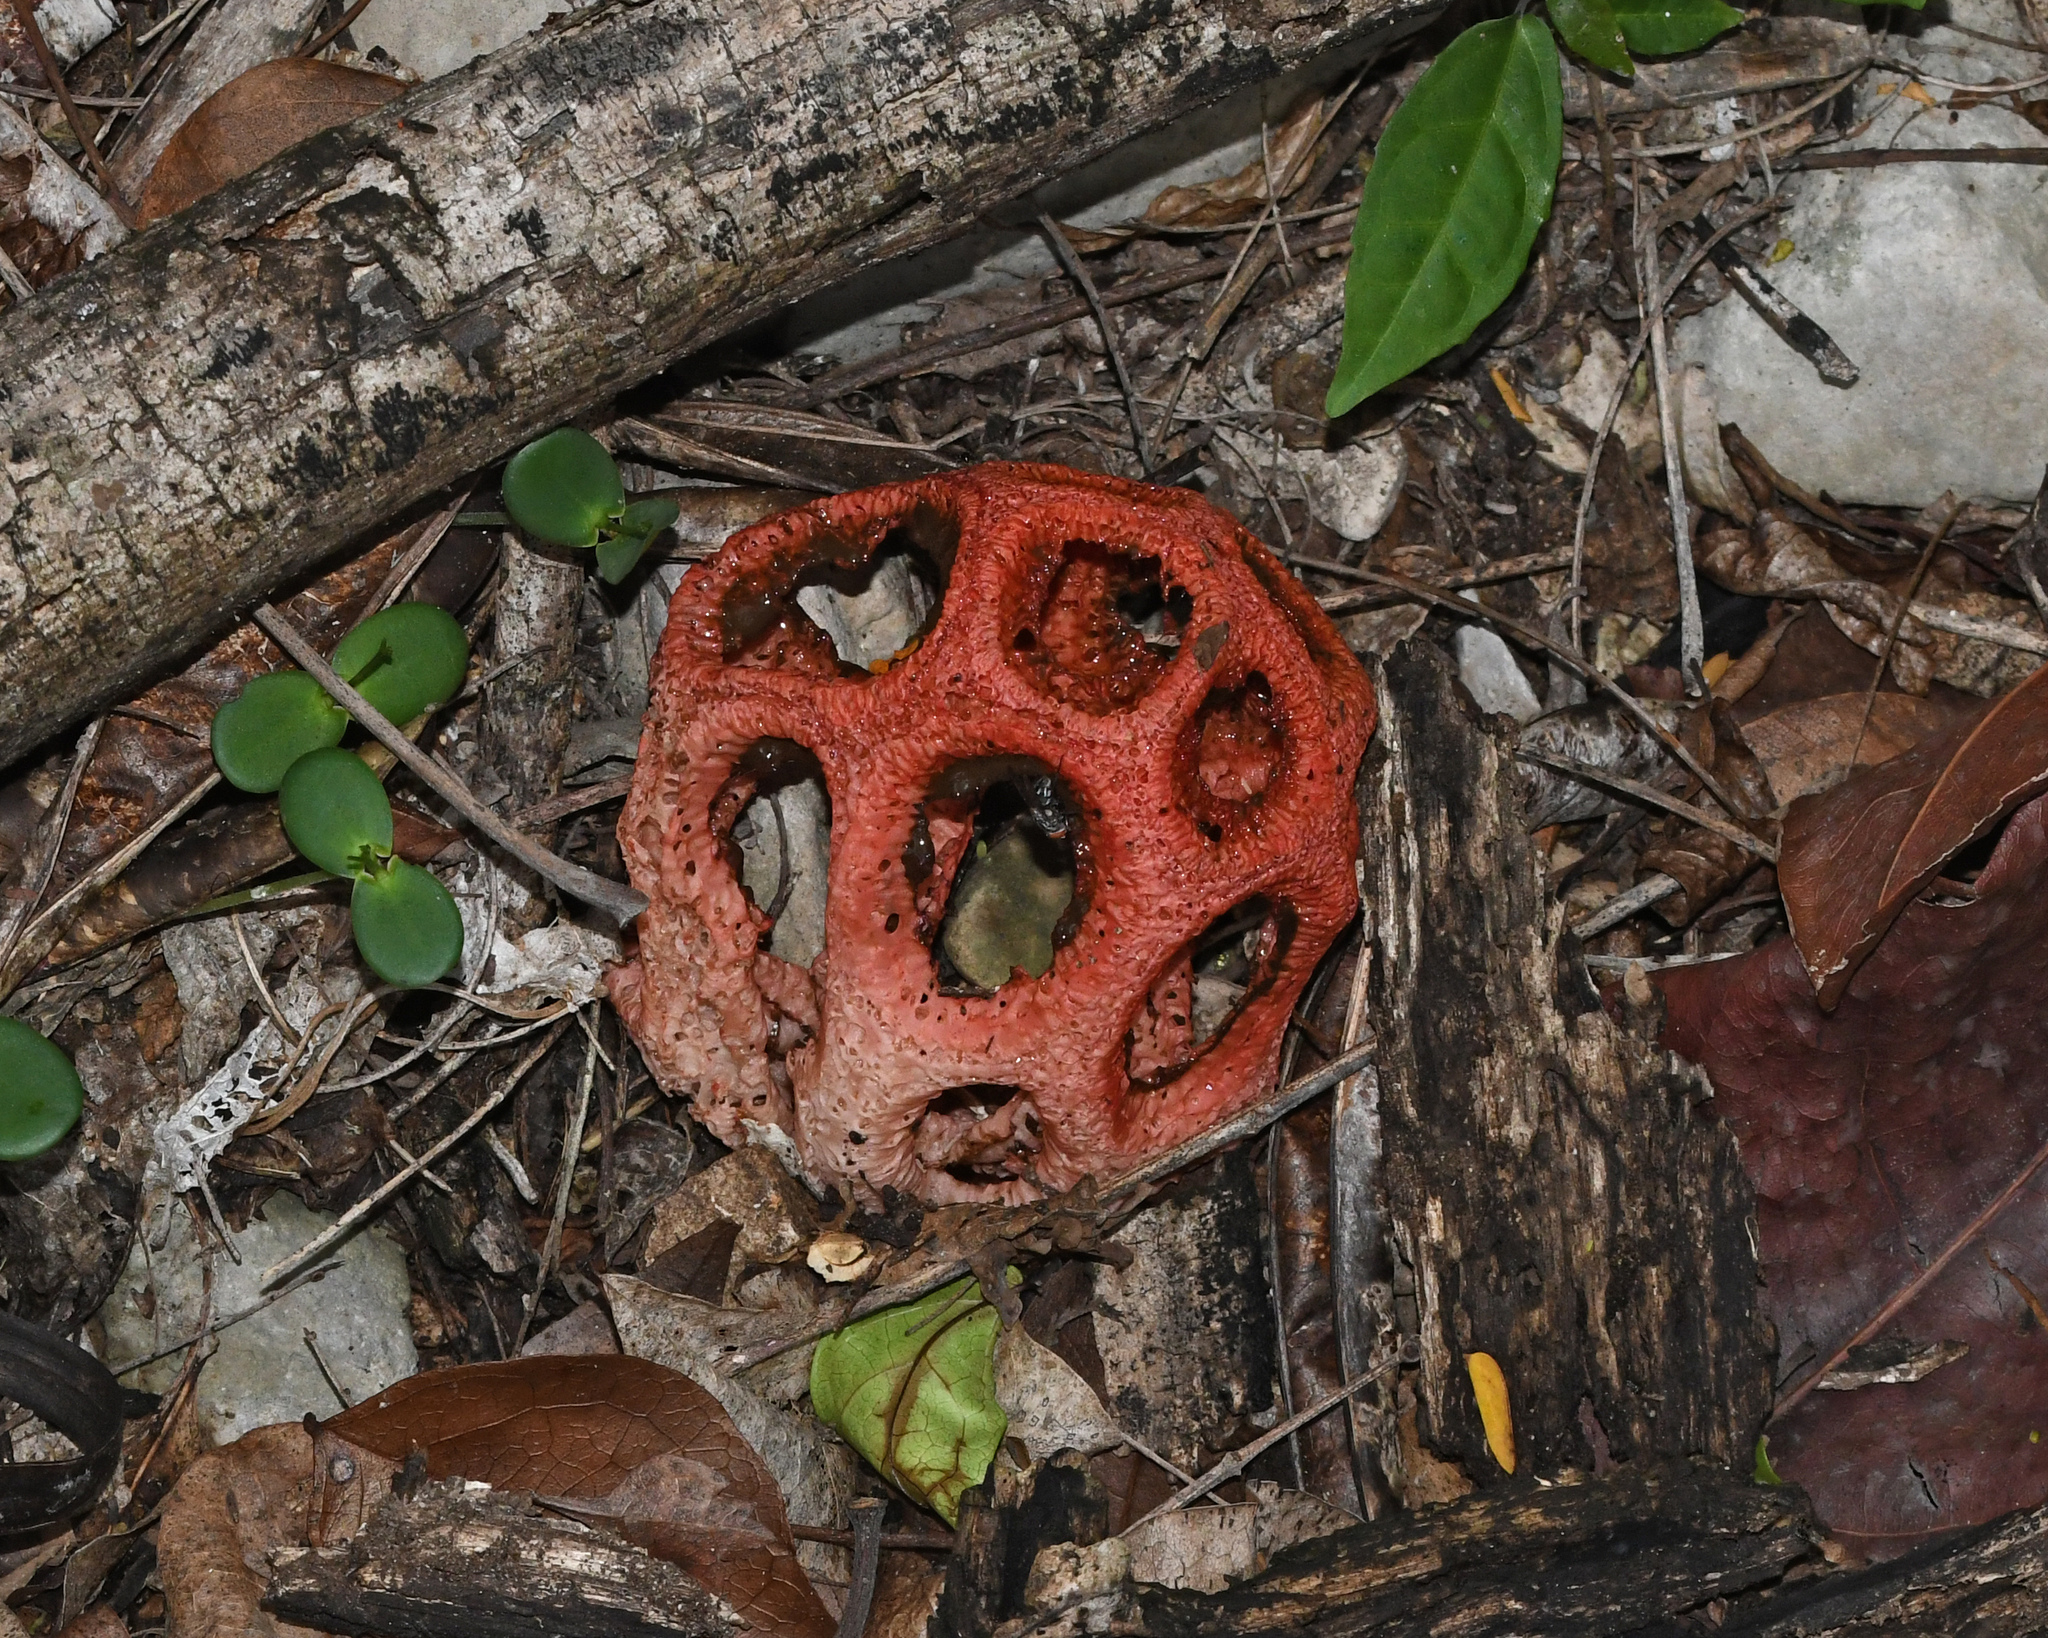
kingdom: Fungi
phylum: Basidiomycota
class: Agaricomycetes
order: Phallales
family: Phallaceae
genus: Clathrus
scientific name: Clathrus crispatus
